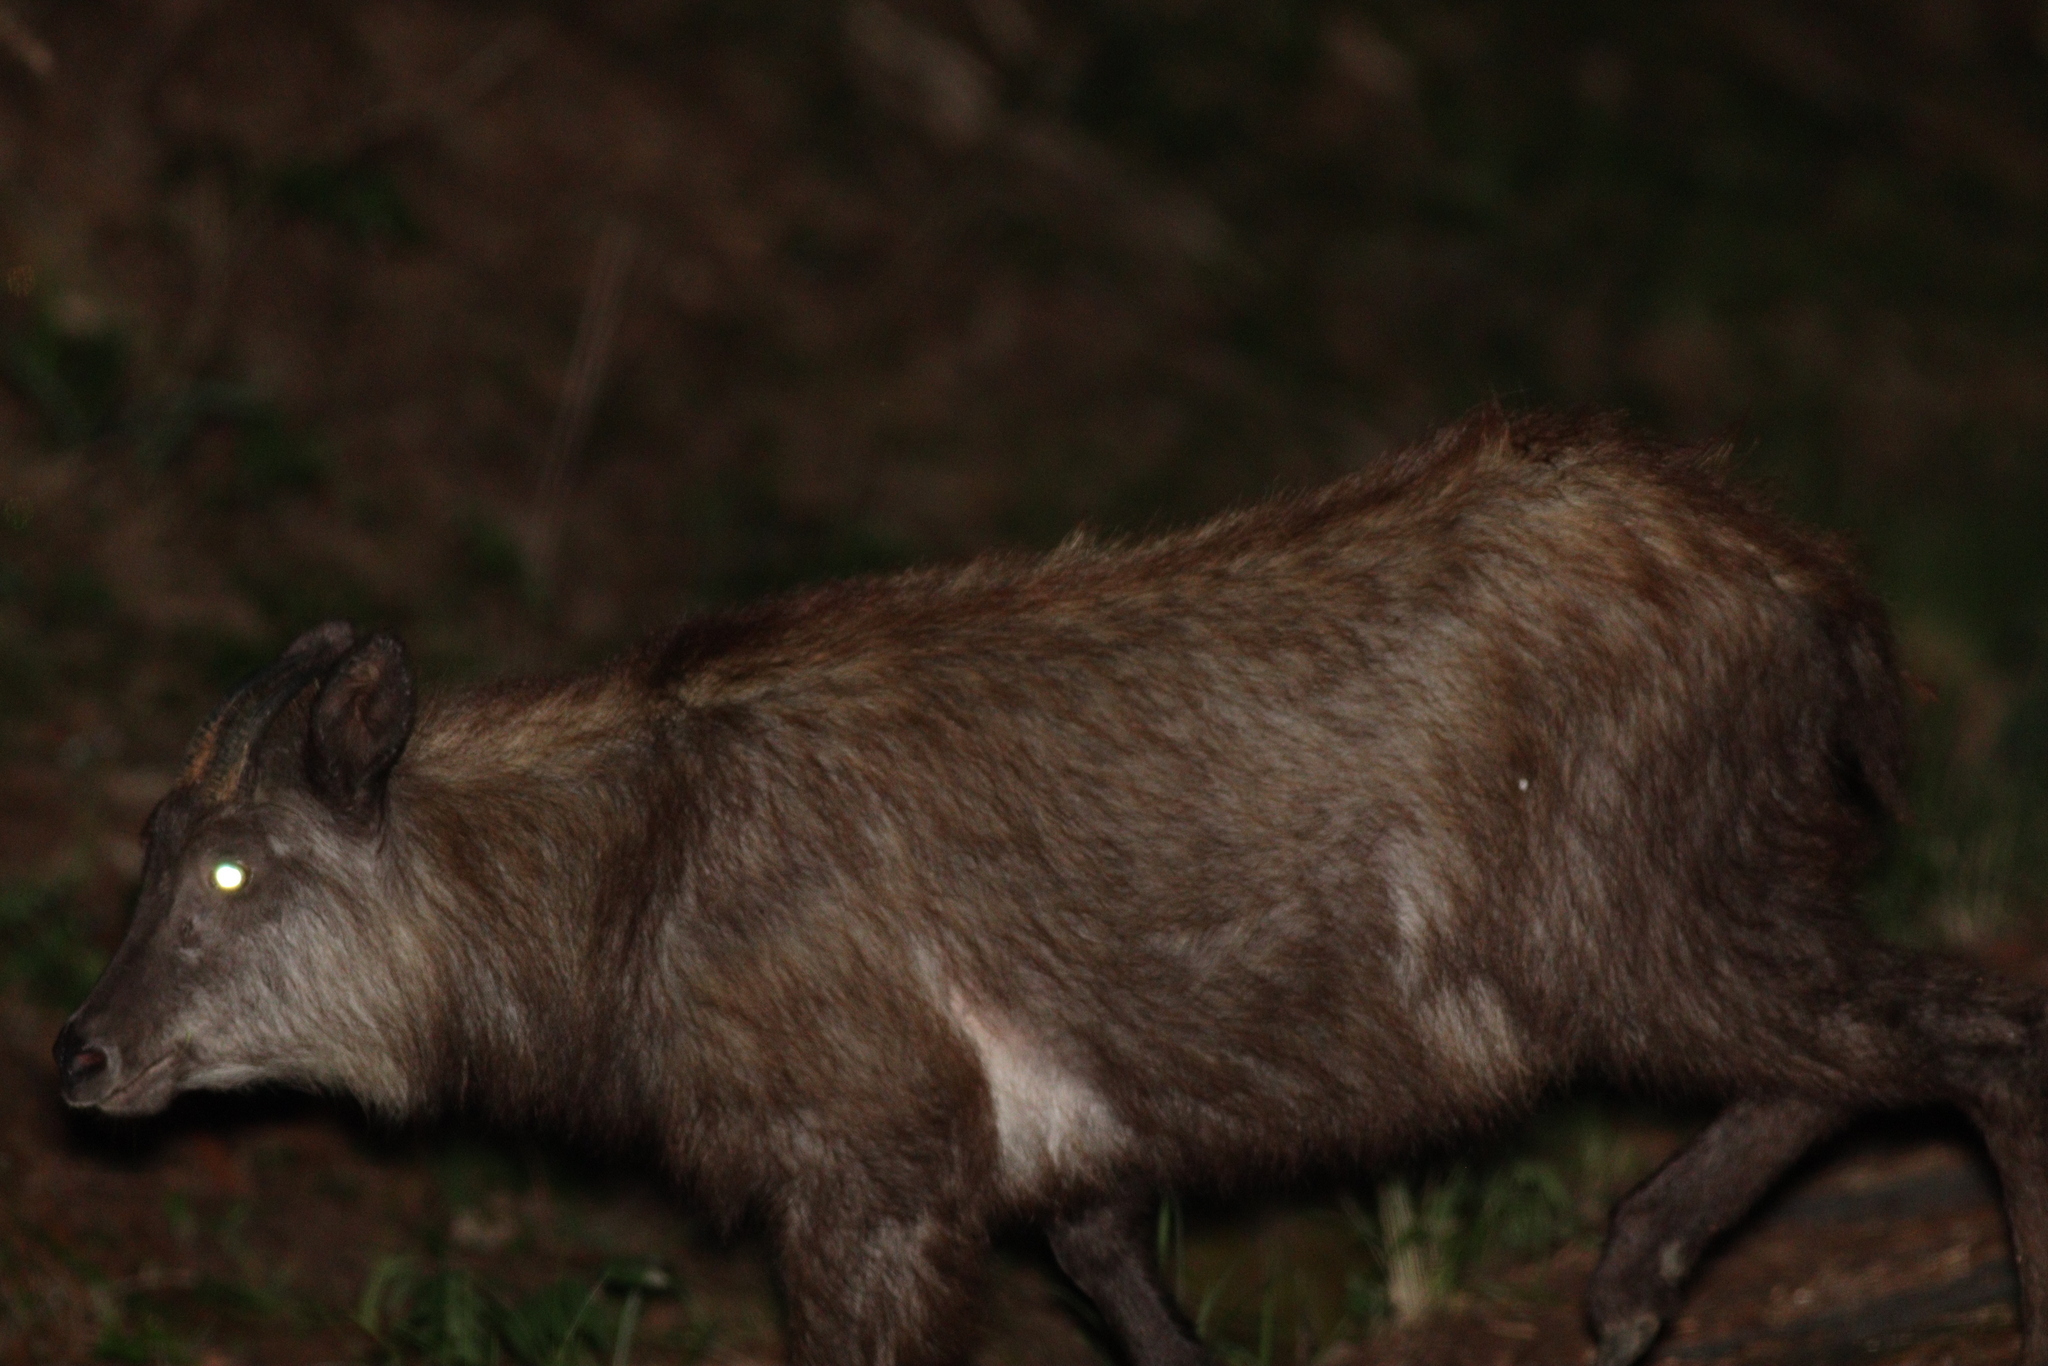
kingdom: Animalia
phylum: Chordata
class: Mammalia
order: Artiodactyla
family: Bovidae
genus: Capricornis
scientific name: Capricornis crispus
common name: Japanese serow
